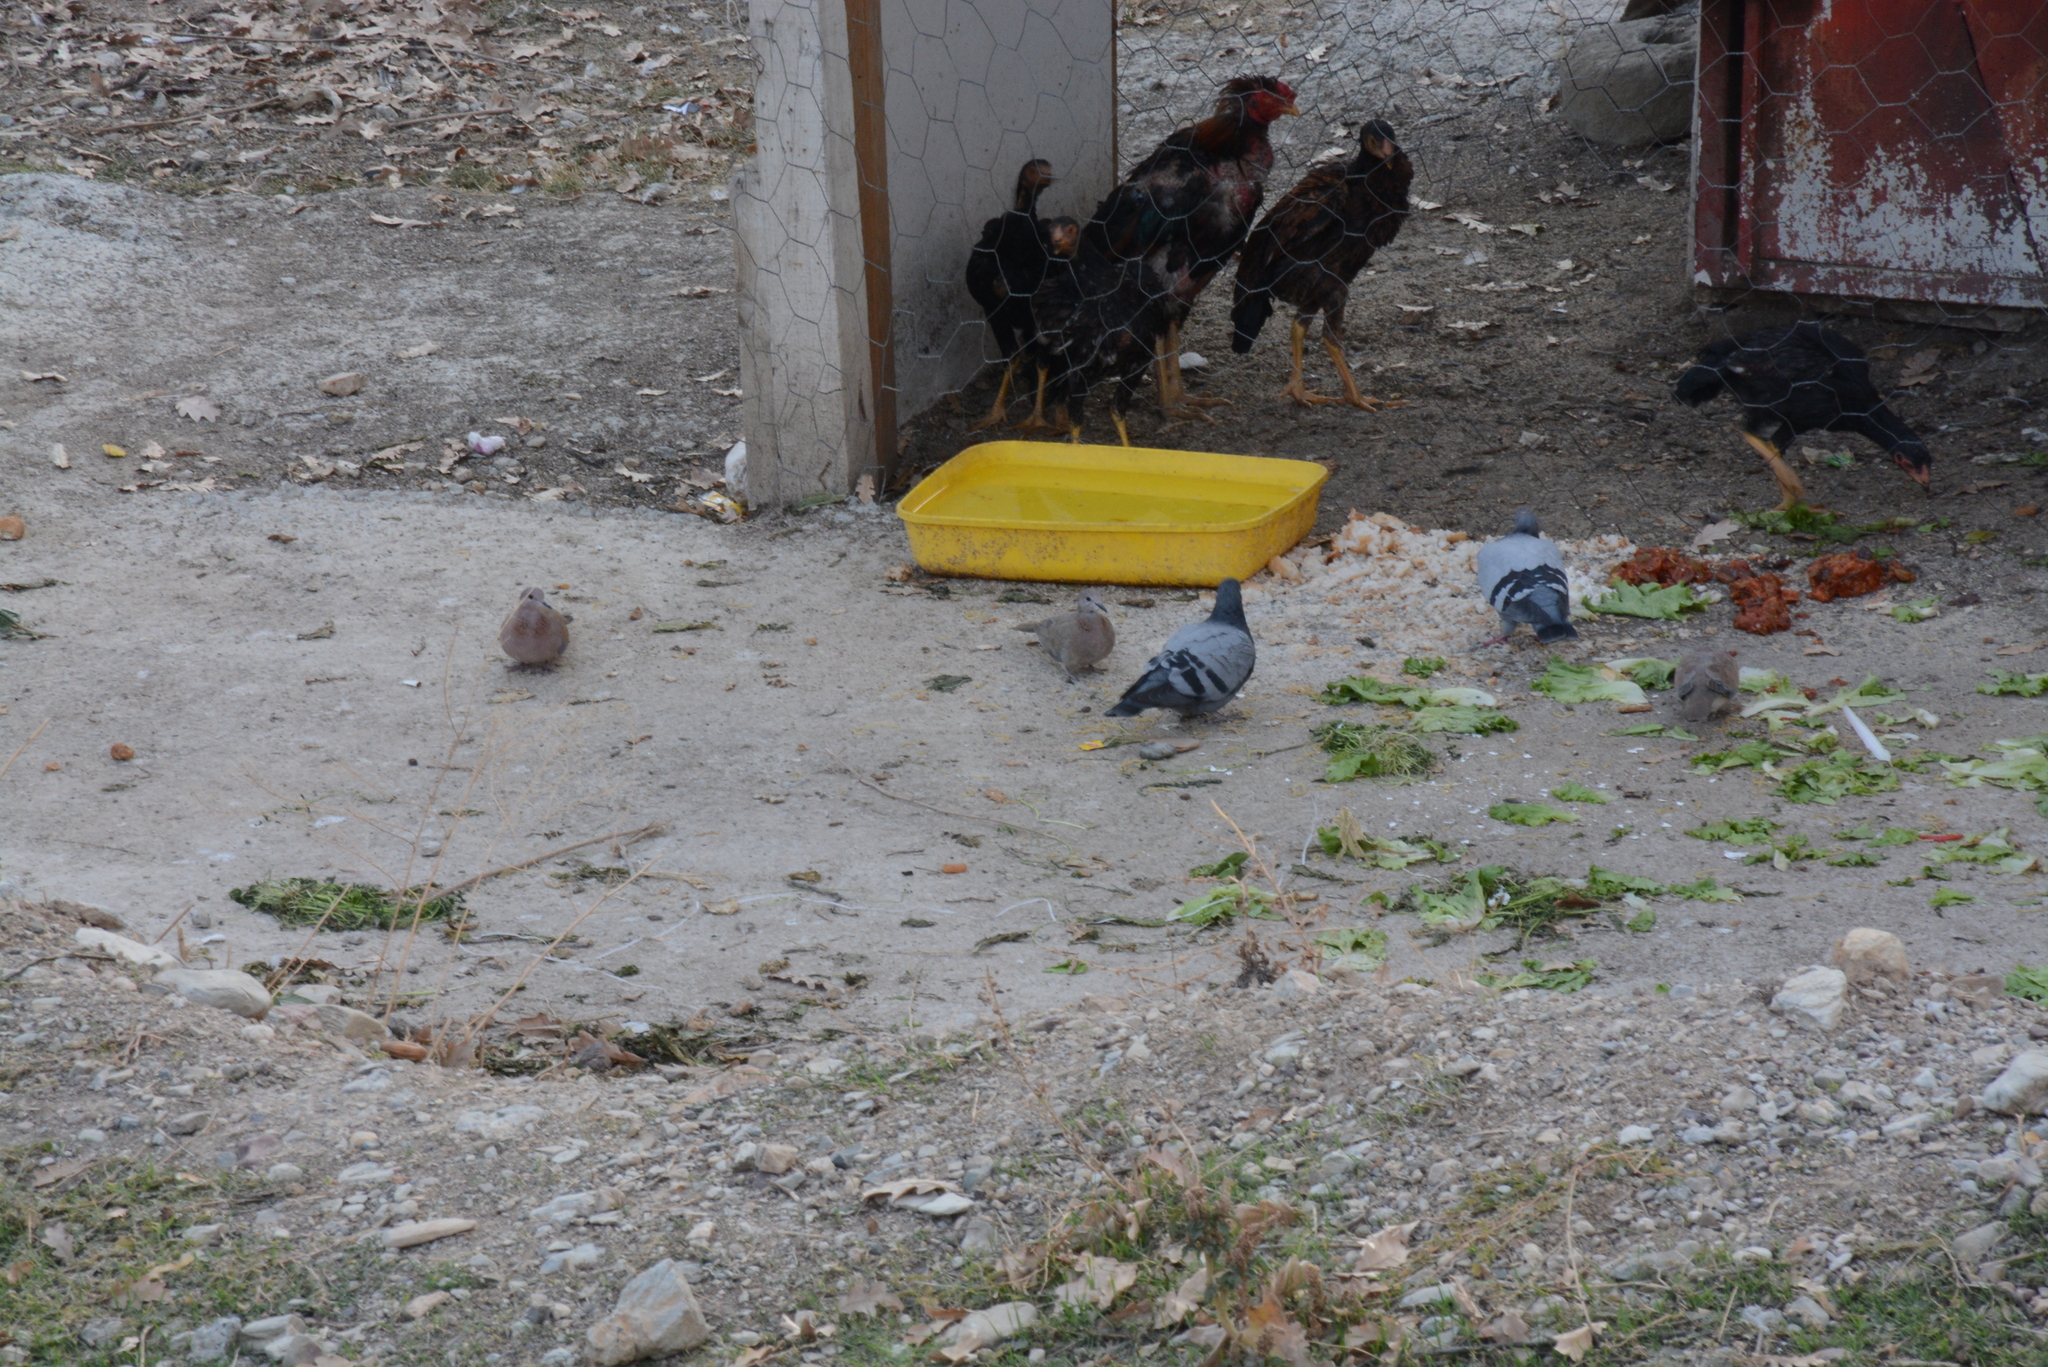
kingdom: Animalia
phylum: Chordata
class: Aves
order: Columbiformes
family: Columbidae
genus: Spilopelia
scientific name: Spilopelia senegalensis
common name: Laughing dove
